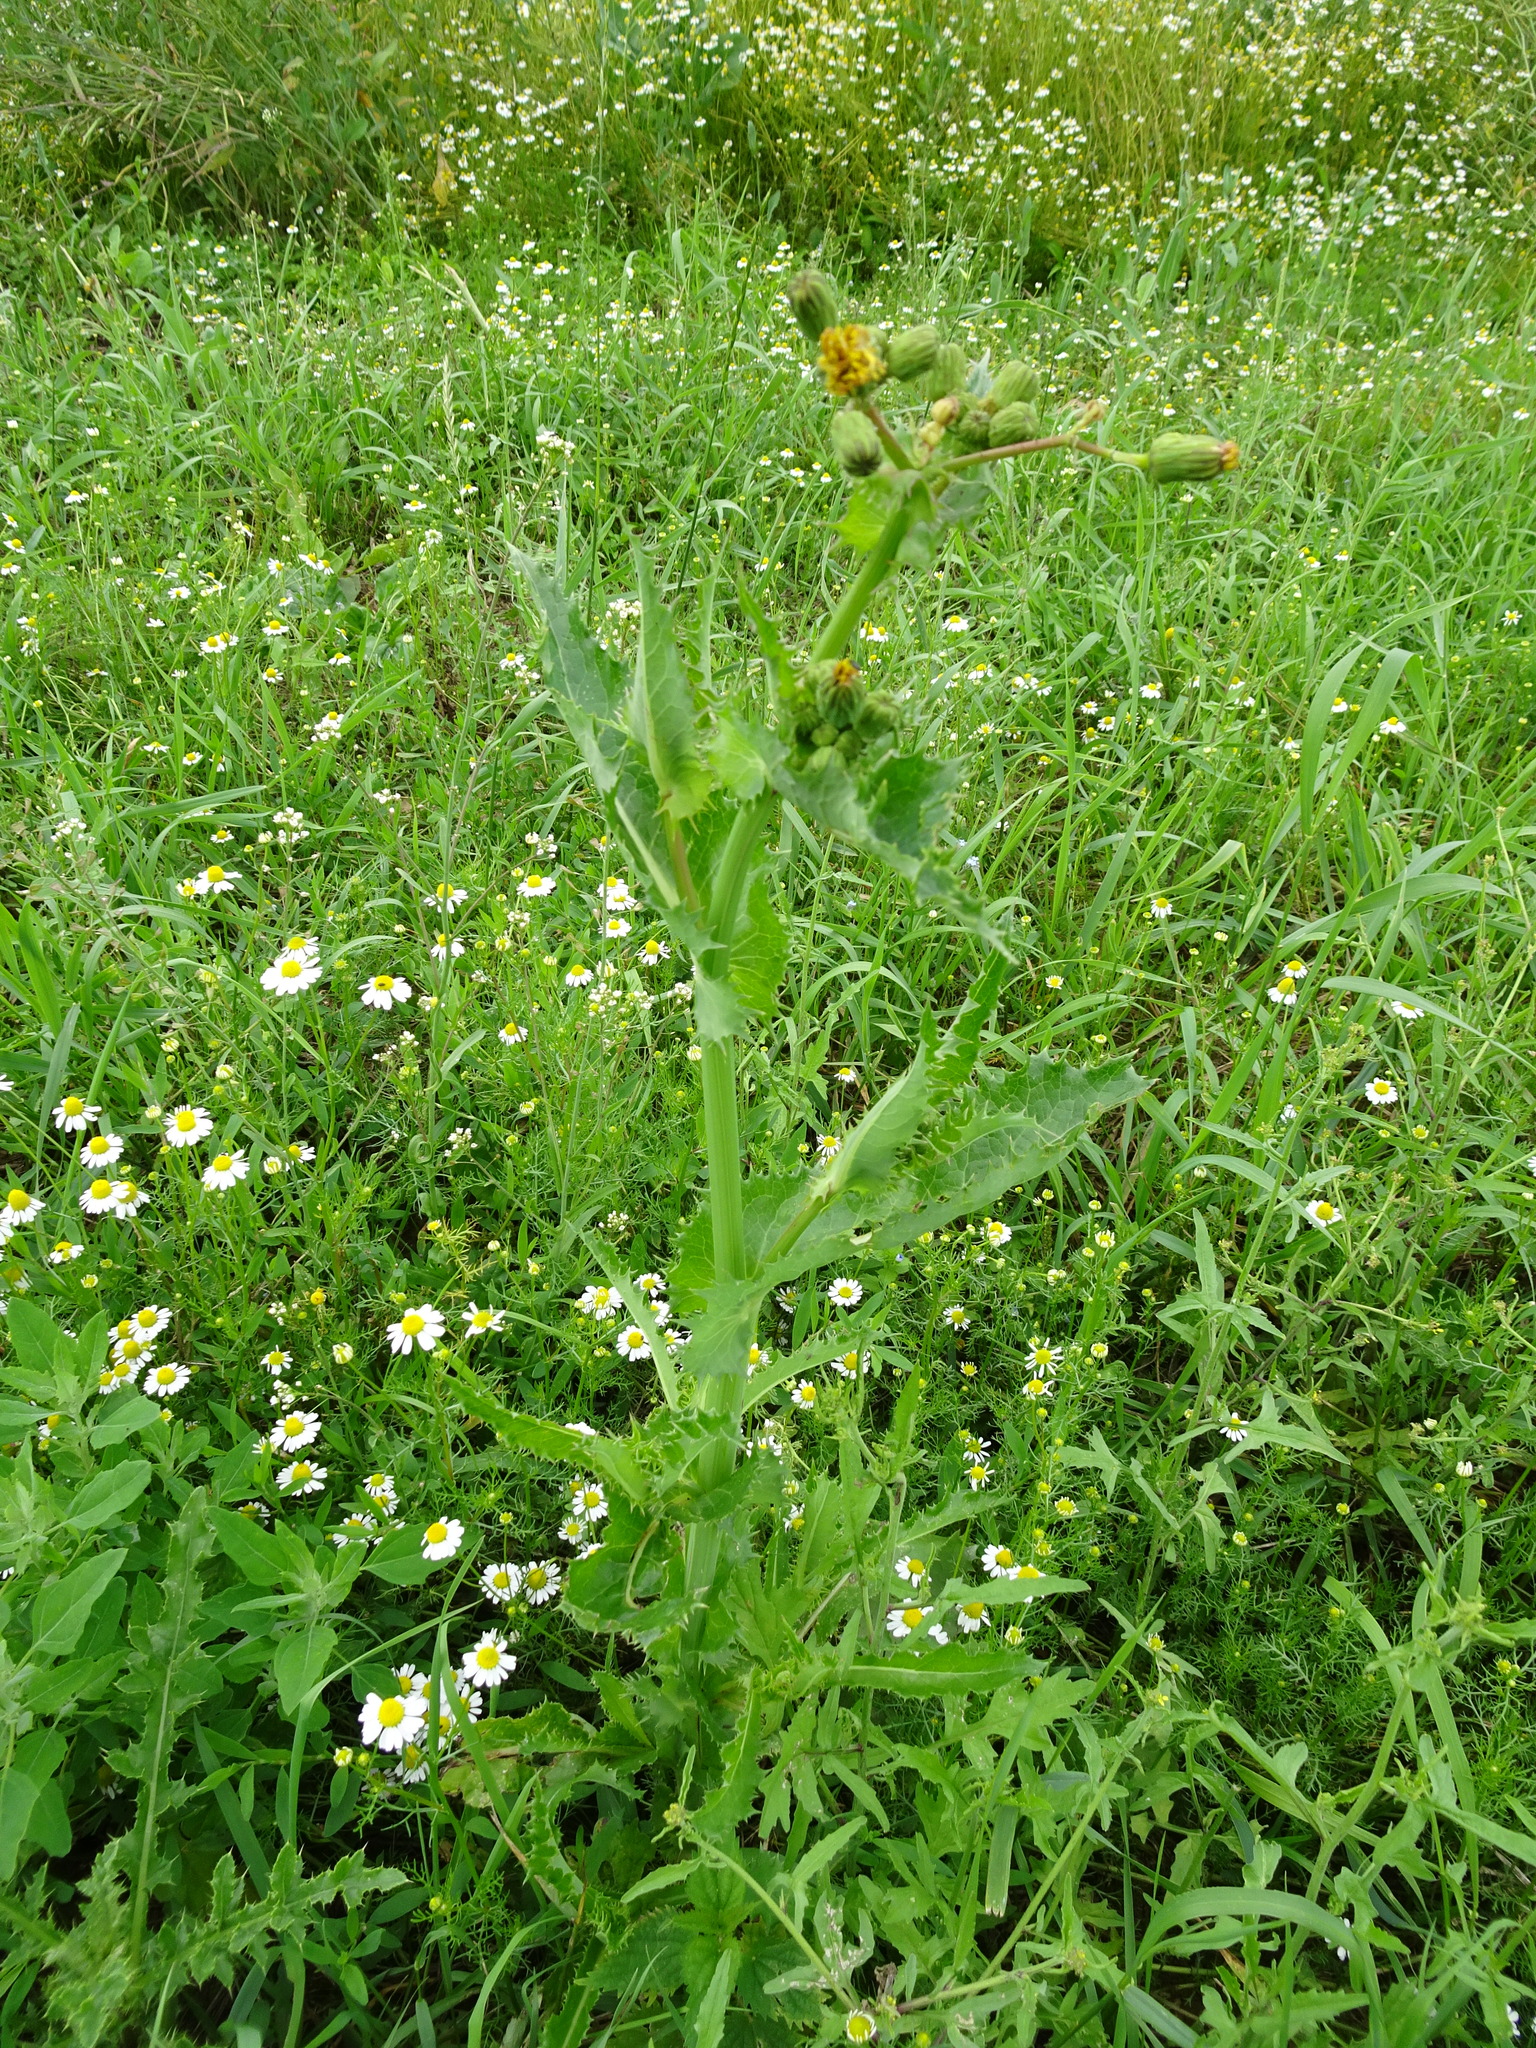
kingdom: Plantae
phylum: Tracheophyta
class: Magnoliopsida
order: Asterales
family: Asteraceae
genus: Sonchus
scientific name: Sonchus asper
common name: Prickly sow-thistle
